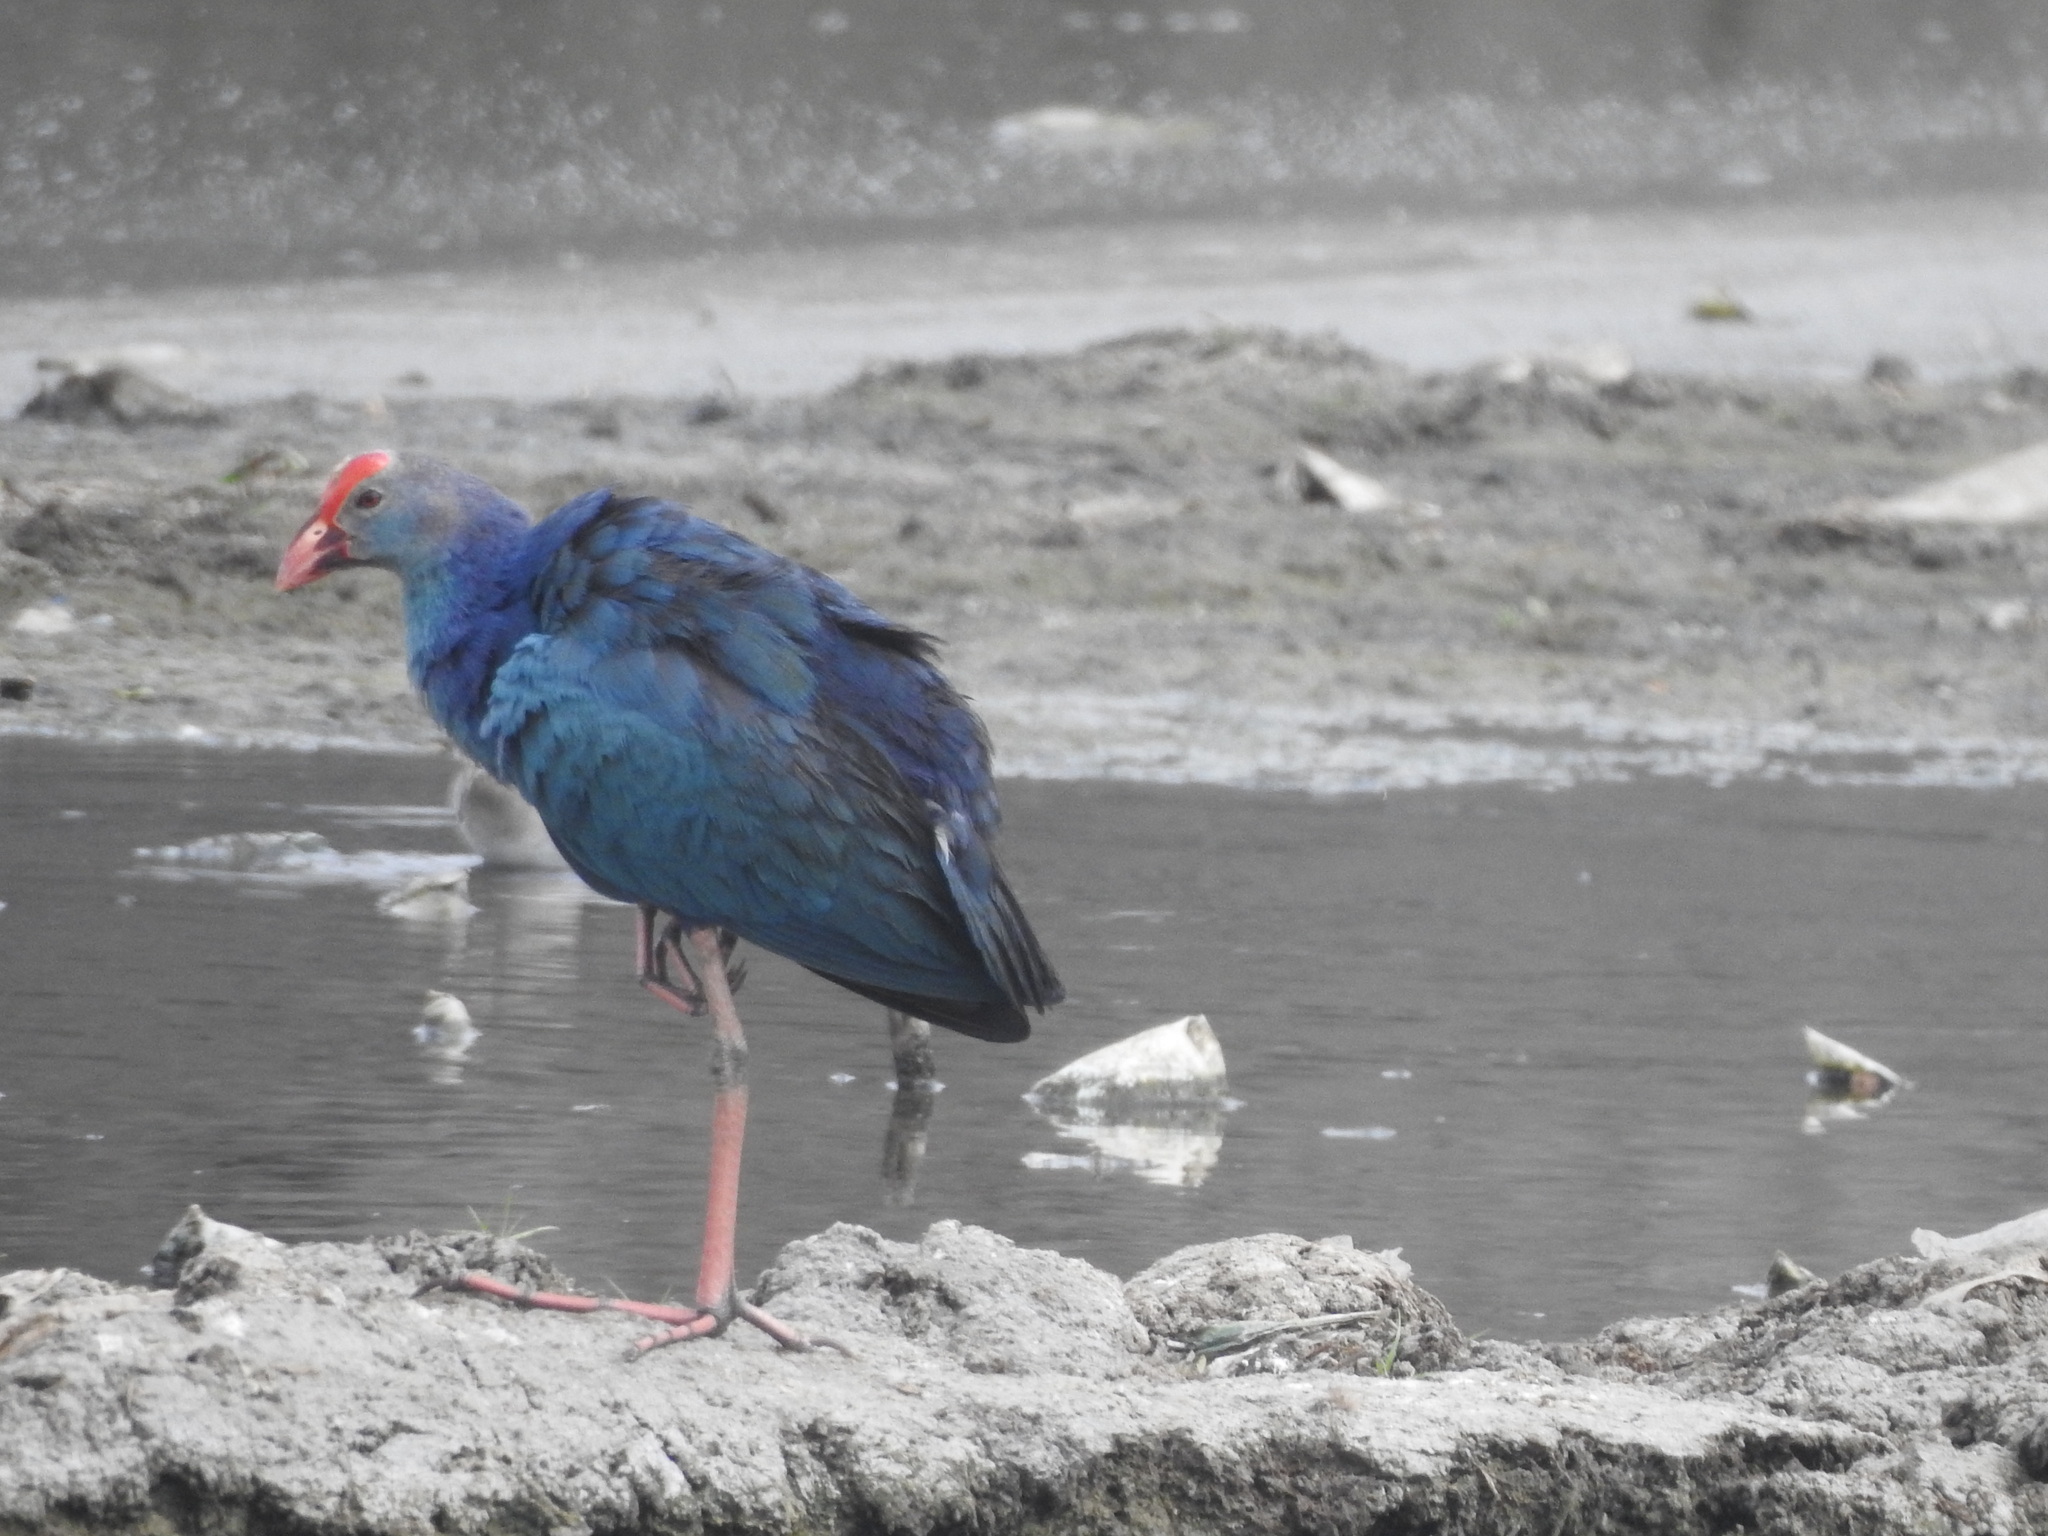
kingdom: Animalia
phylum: Chordata
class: Aves
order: Gruiformes
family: Rallidae
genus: Porphyrio
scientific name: Porphyrio porphyrio
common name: Purple swamphen
